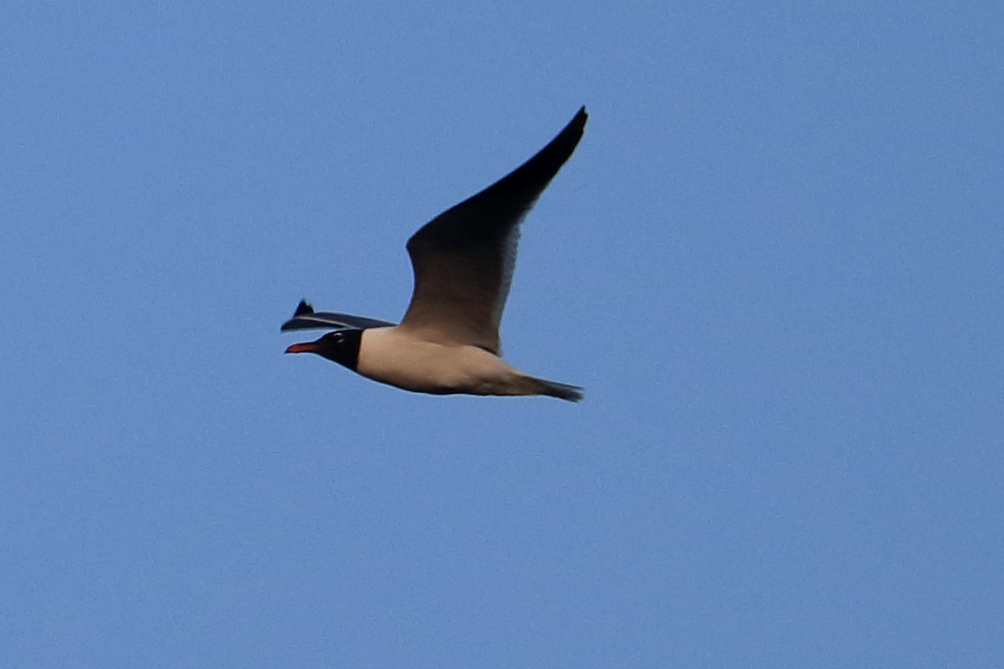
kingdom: Animalia
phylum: Chordata
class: Aves
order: Charadriiformes
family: Laridae
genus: Leucophaeus
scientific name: Leucophaeus atricilla
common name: Laughing gull
